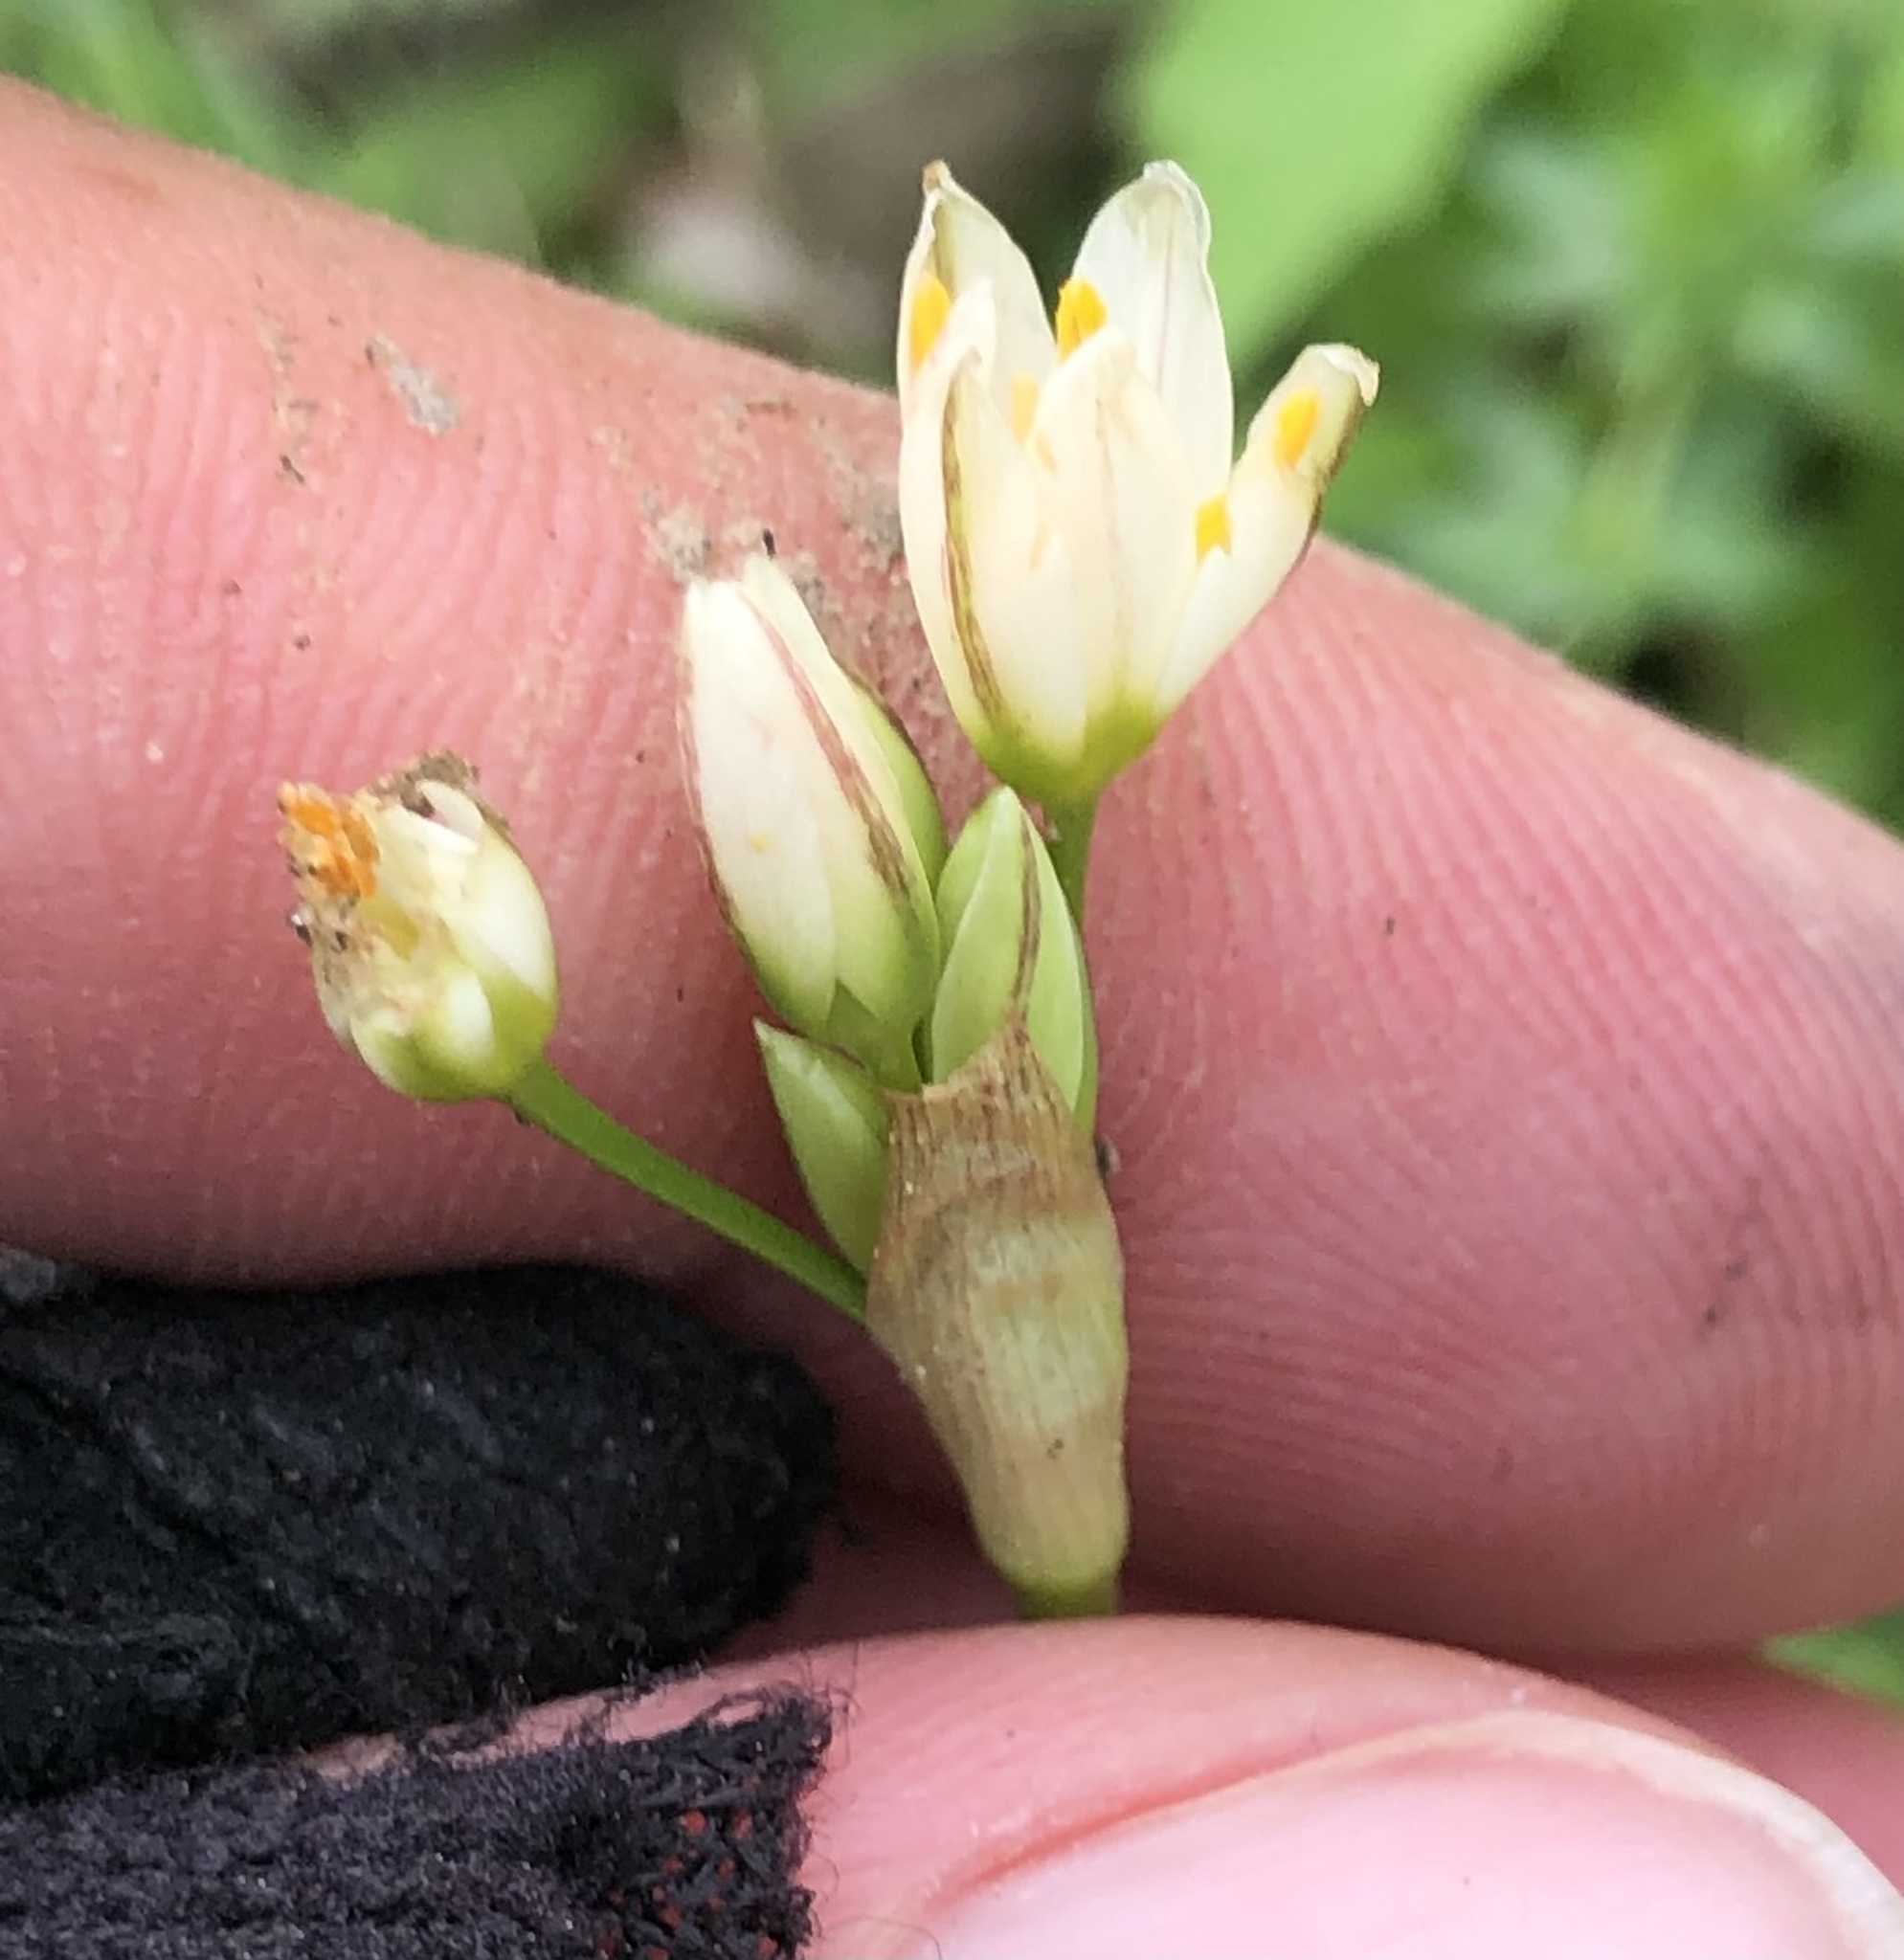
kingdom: Plantae
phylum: Tracheophyta
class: Liliopsida
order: Asparagales
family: Amaryllidaceae
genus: Nothoscordum
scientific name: Nothoscordum bivalve
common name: Crow-poison
